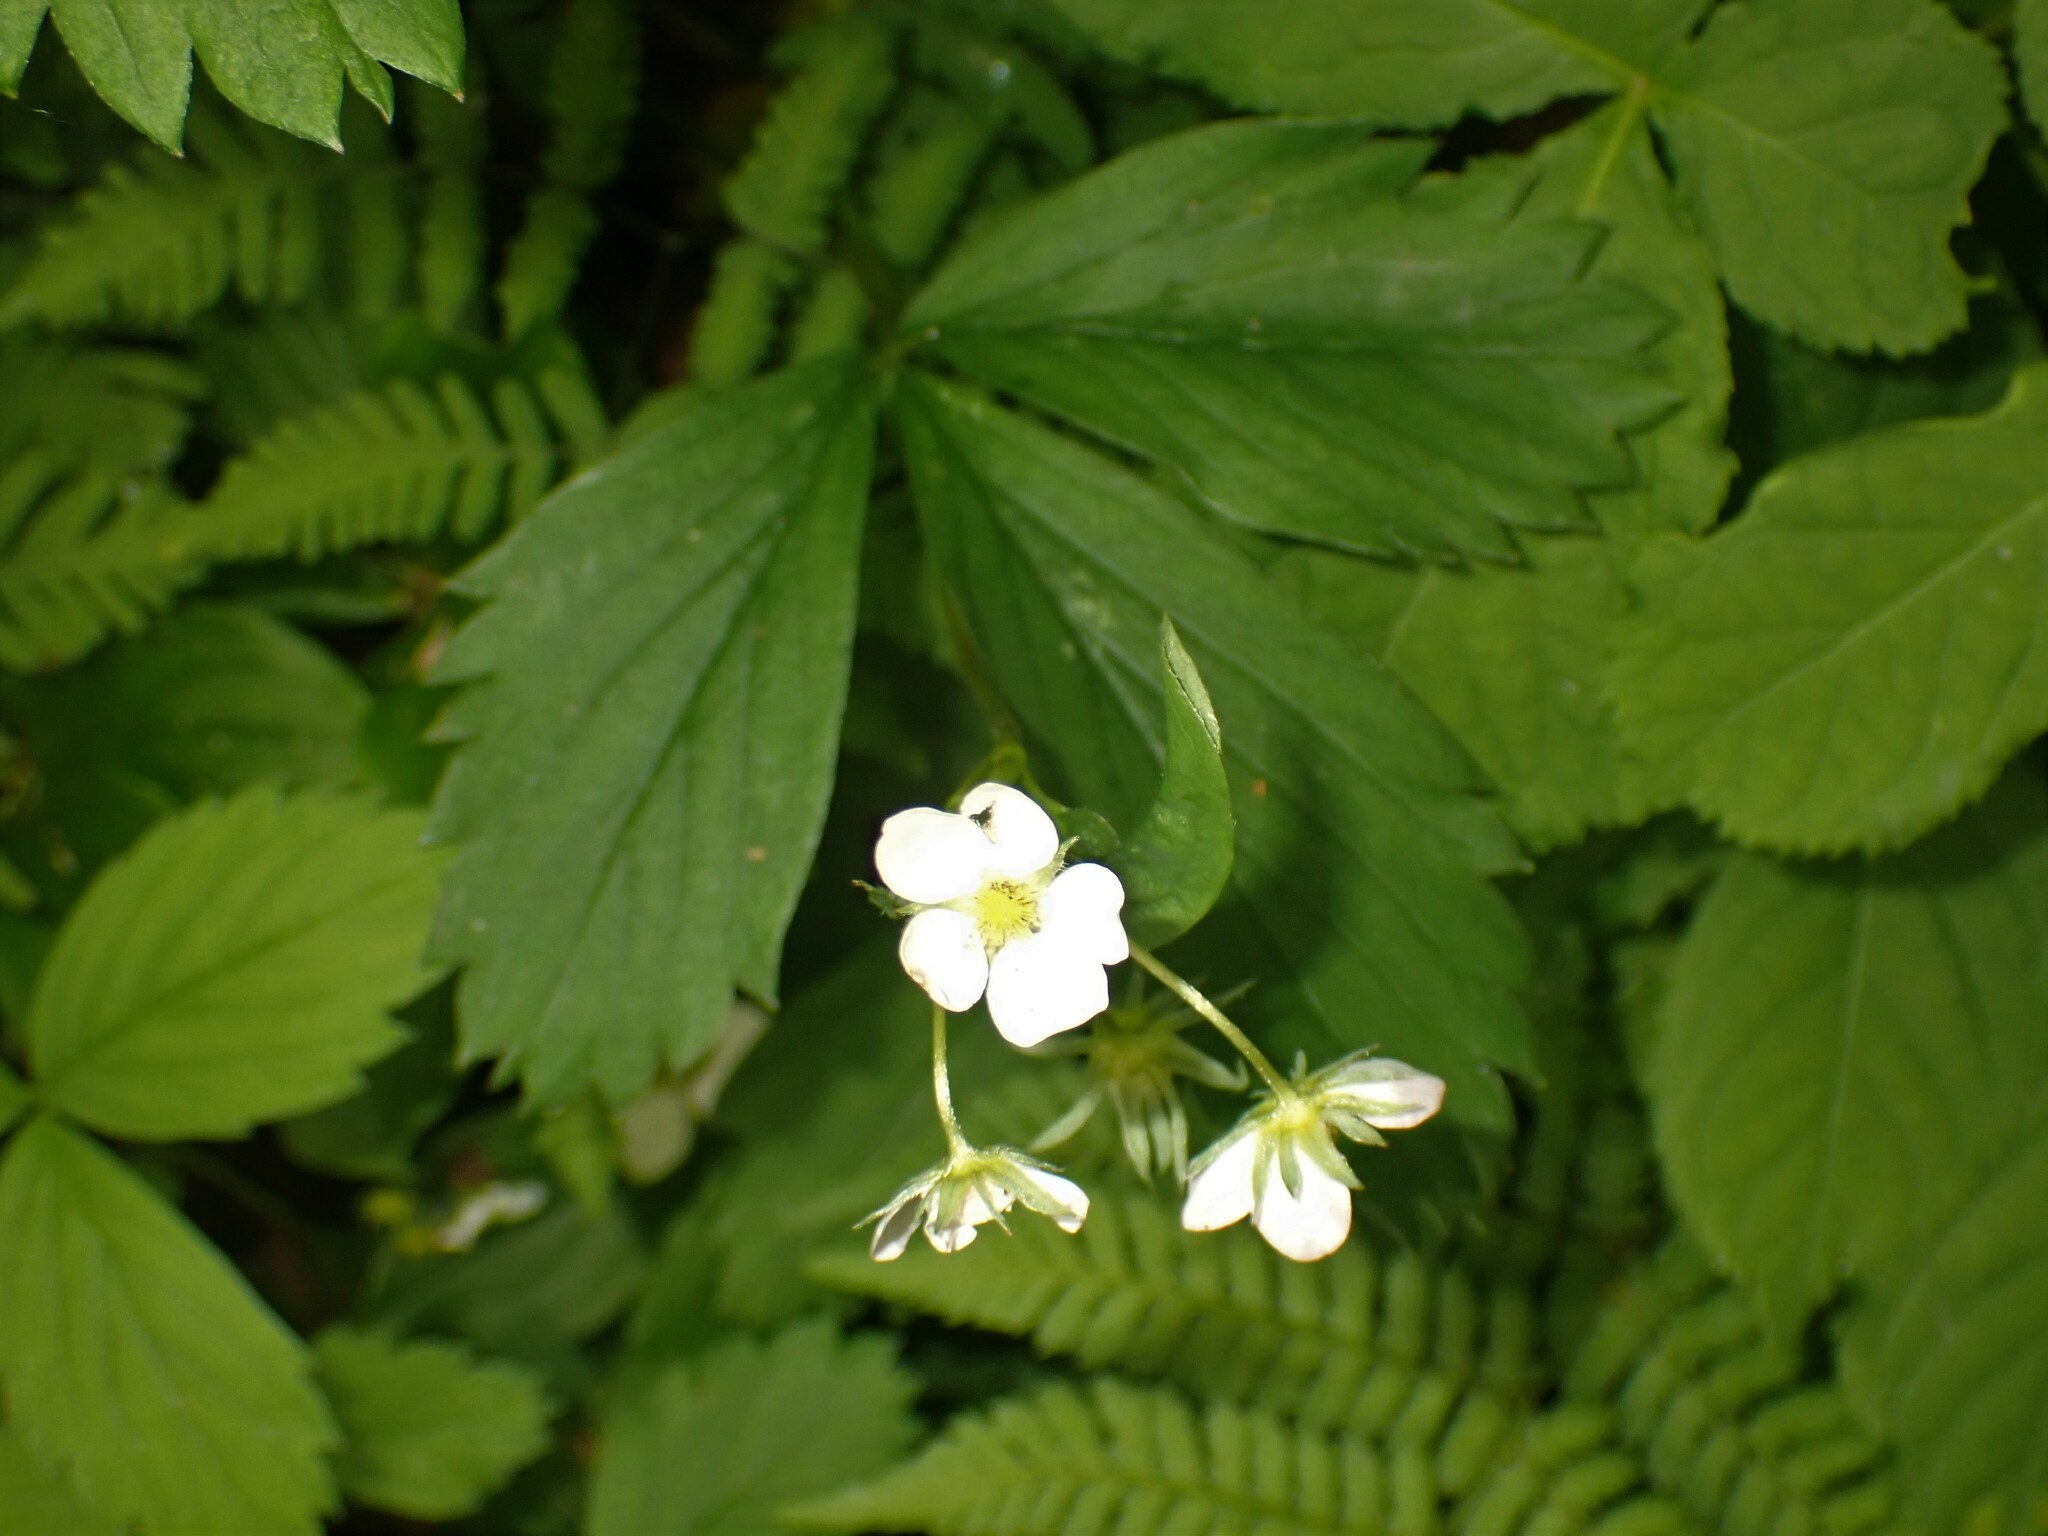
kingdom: Plantae
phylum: Tracheophyta
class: Magnoliopsida
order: Rosales
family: Rosaceae
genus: Fragaria
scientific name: Fragaria virginiana
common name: Thickleaved wild strawberry
